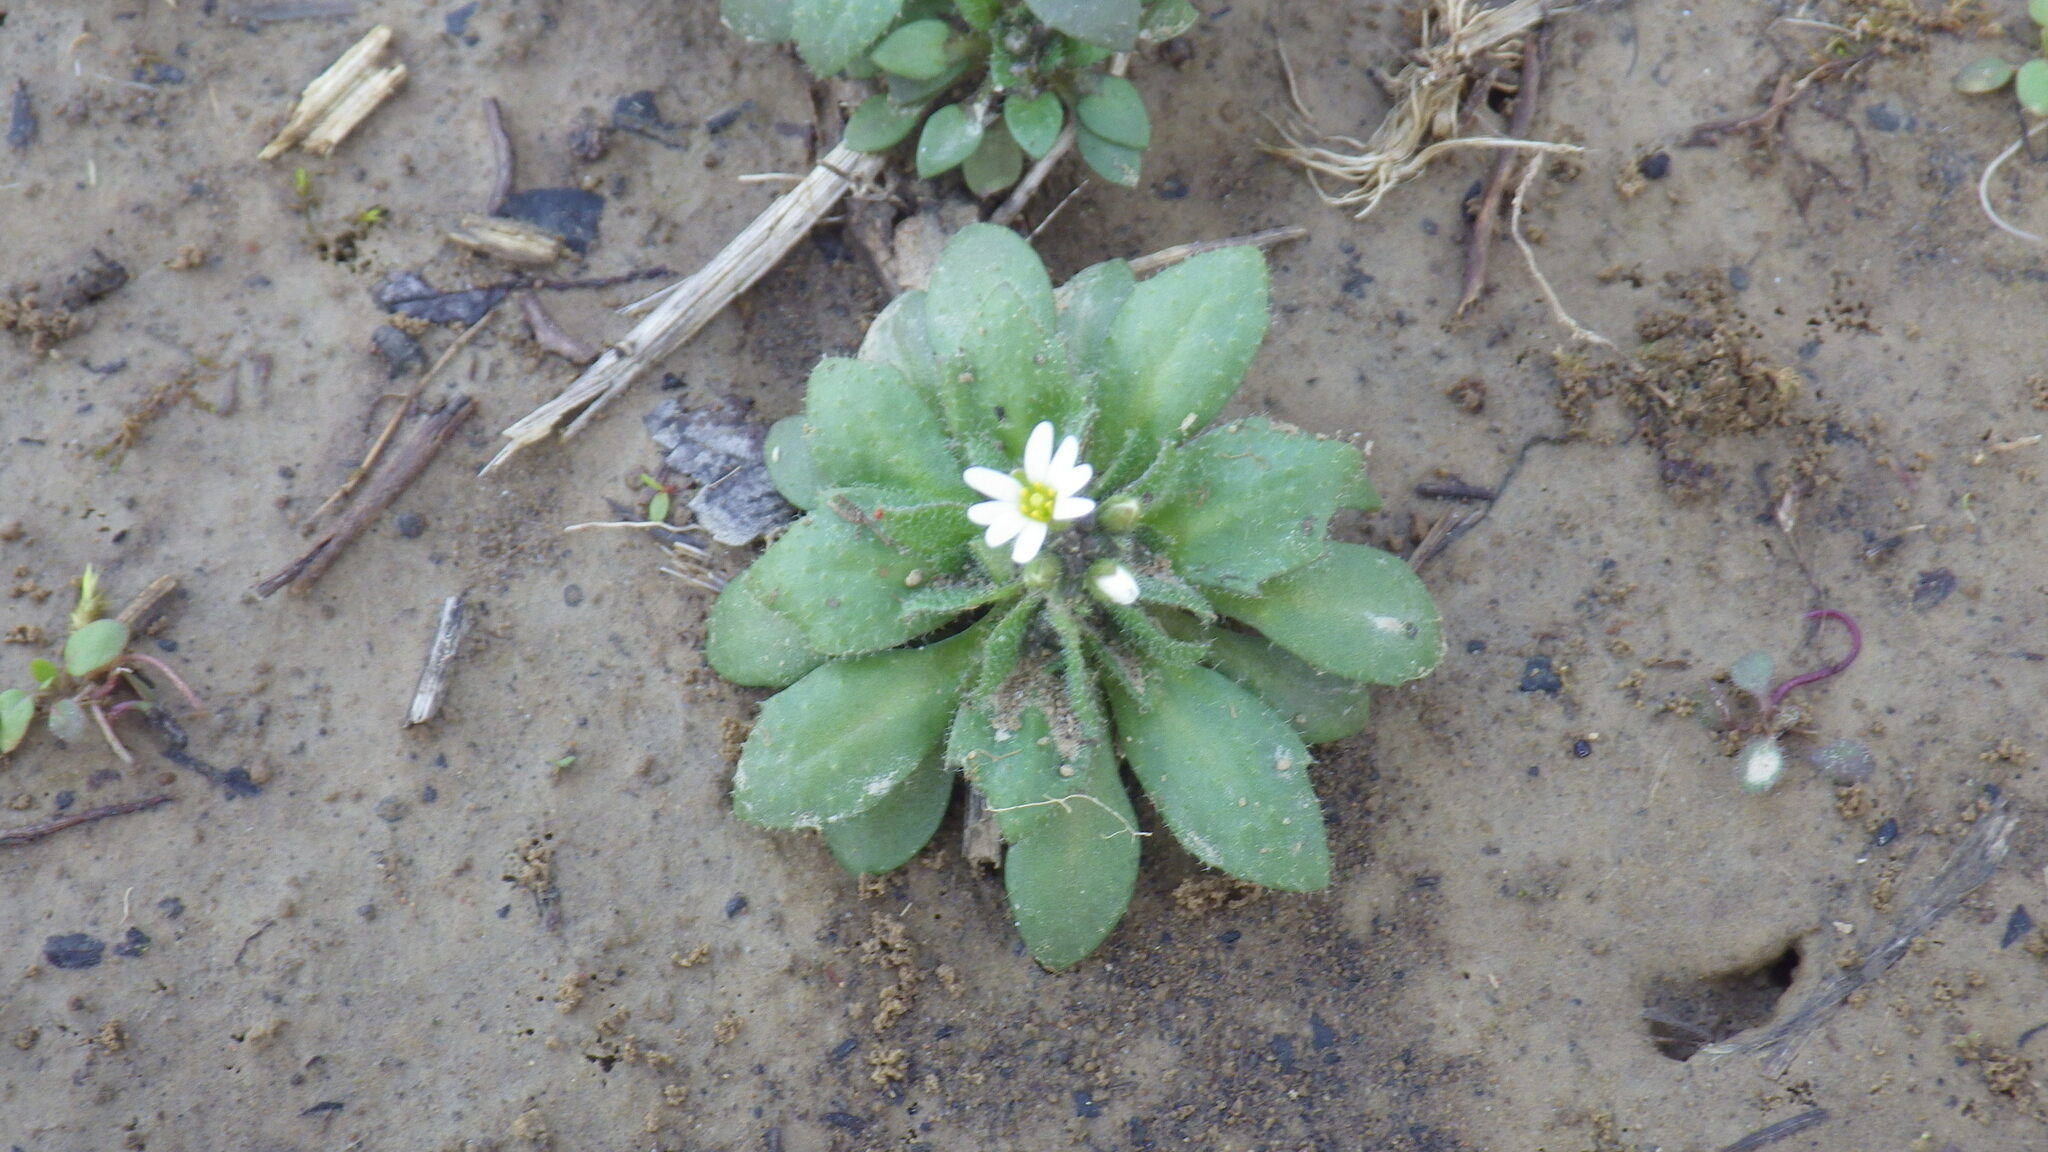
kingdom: Plantae
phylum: Tracheophyta
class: Magnoliopsida
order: Brassicales
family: Brassicaceae
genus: Draba
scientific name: Draba verna
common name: Spring draba
